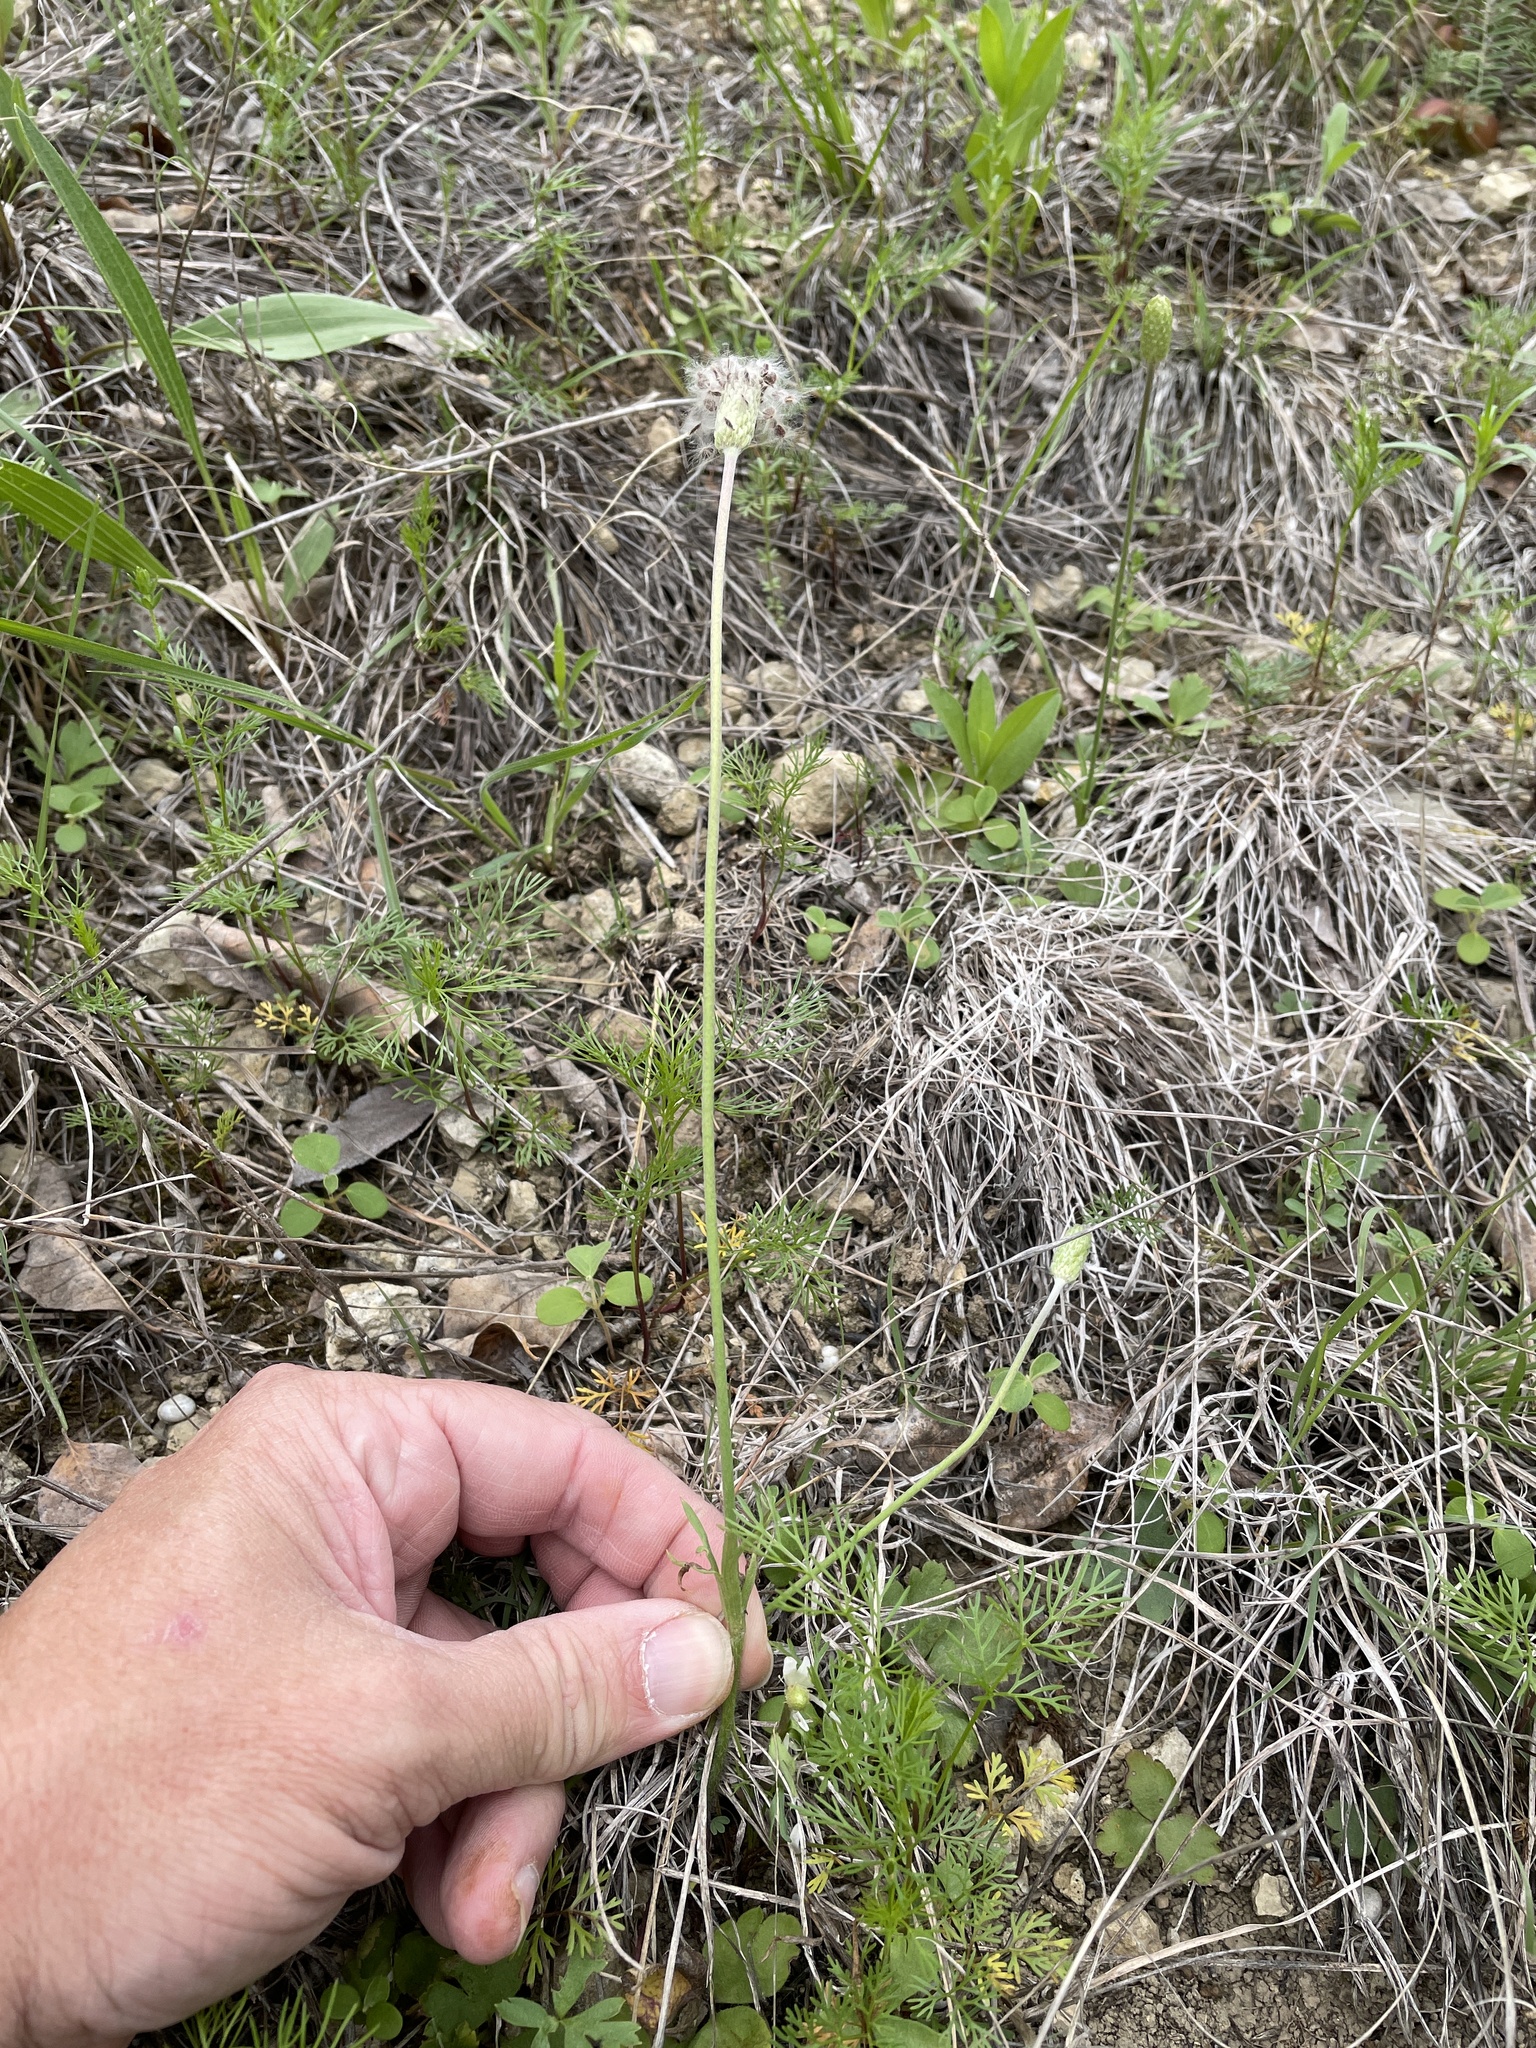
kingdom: Plantae
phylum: Tracheophyta
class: Magnoliopsida
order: Ranunculales
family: Ranunculaceae
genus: Anemone
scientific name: Anemone berlandieri
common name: Ten-petal anemone
